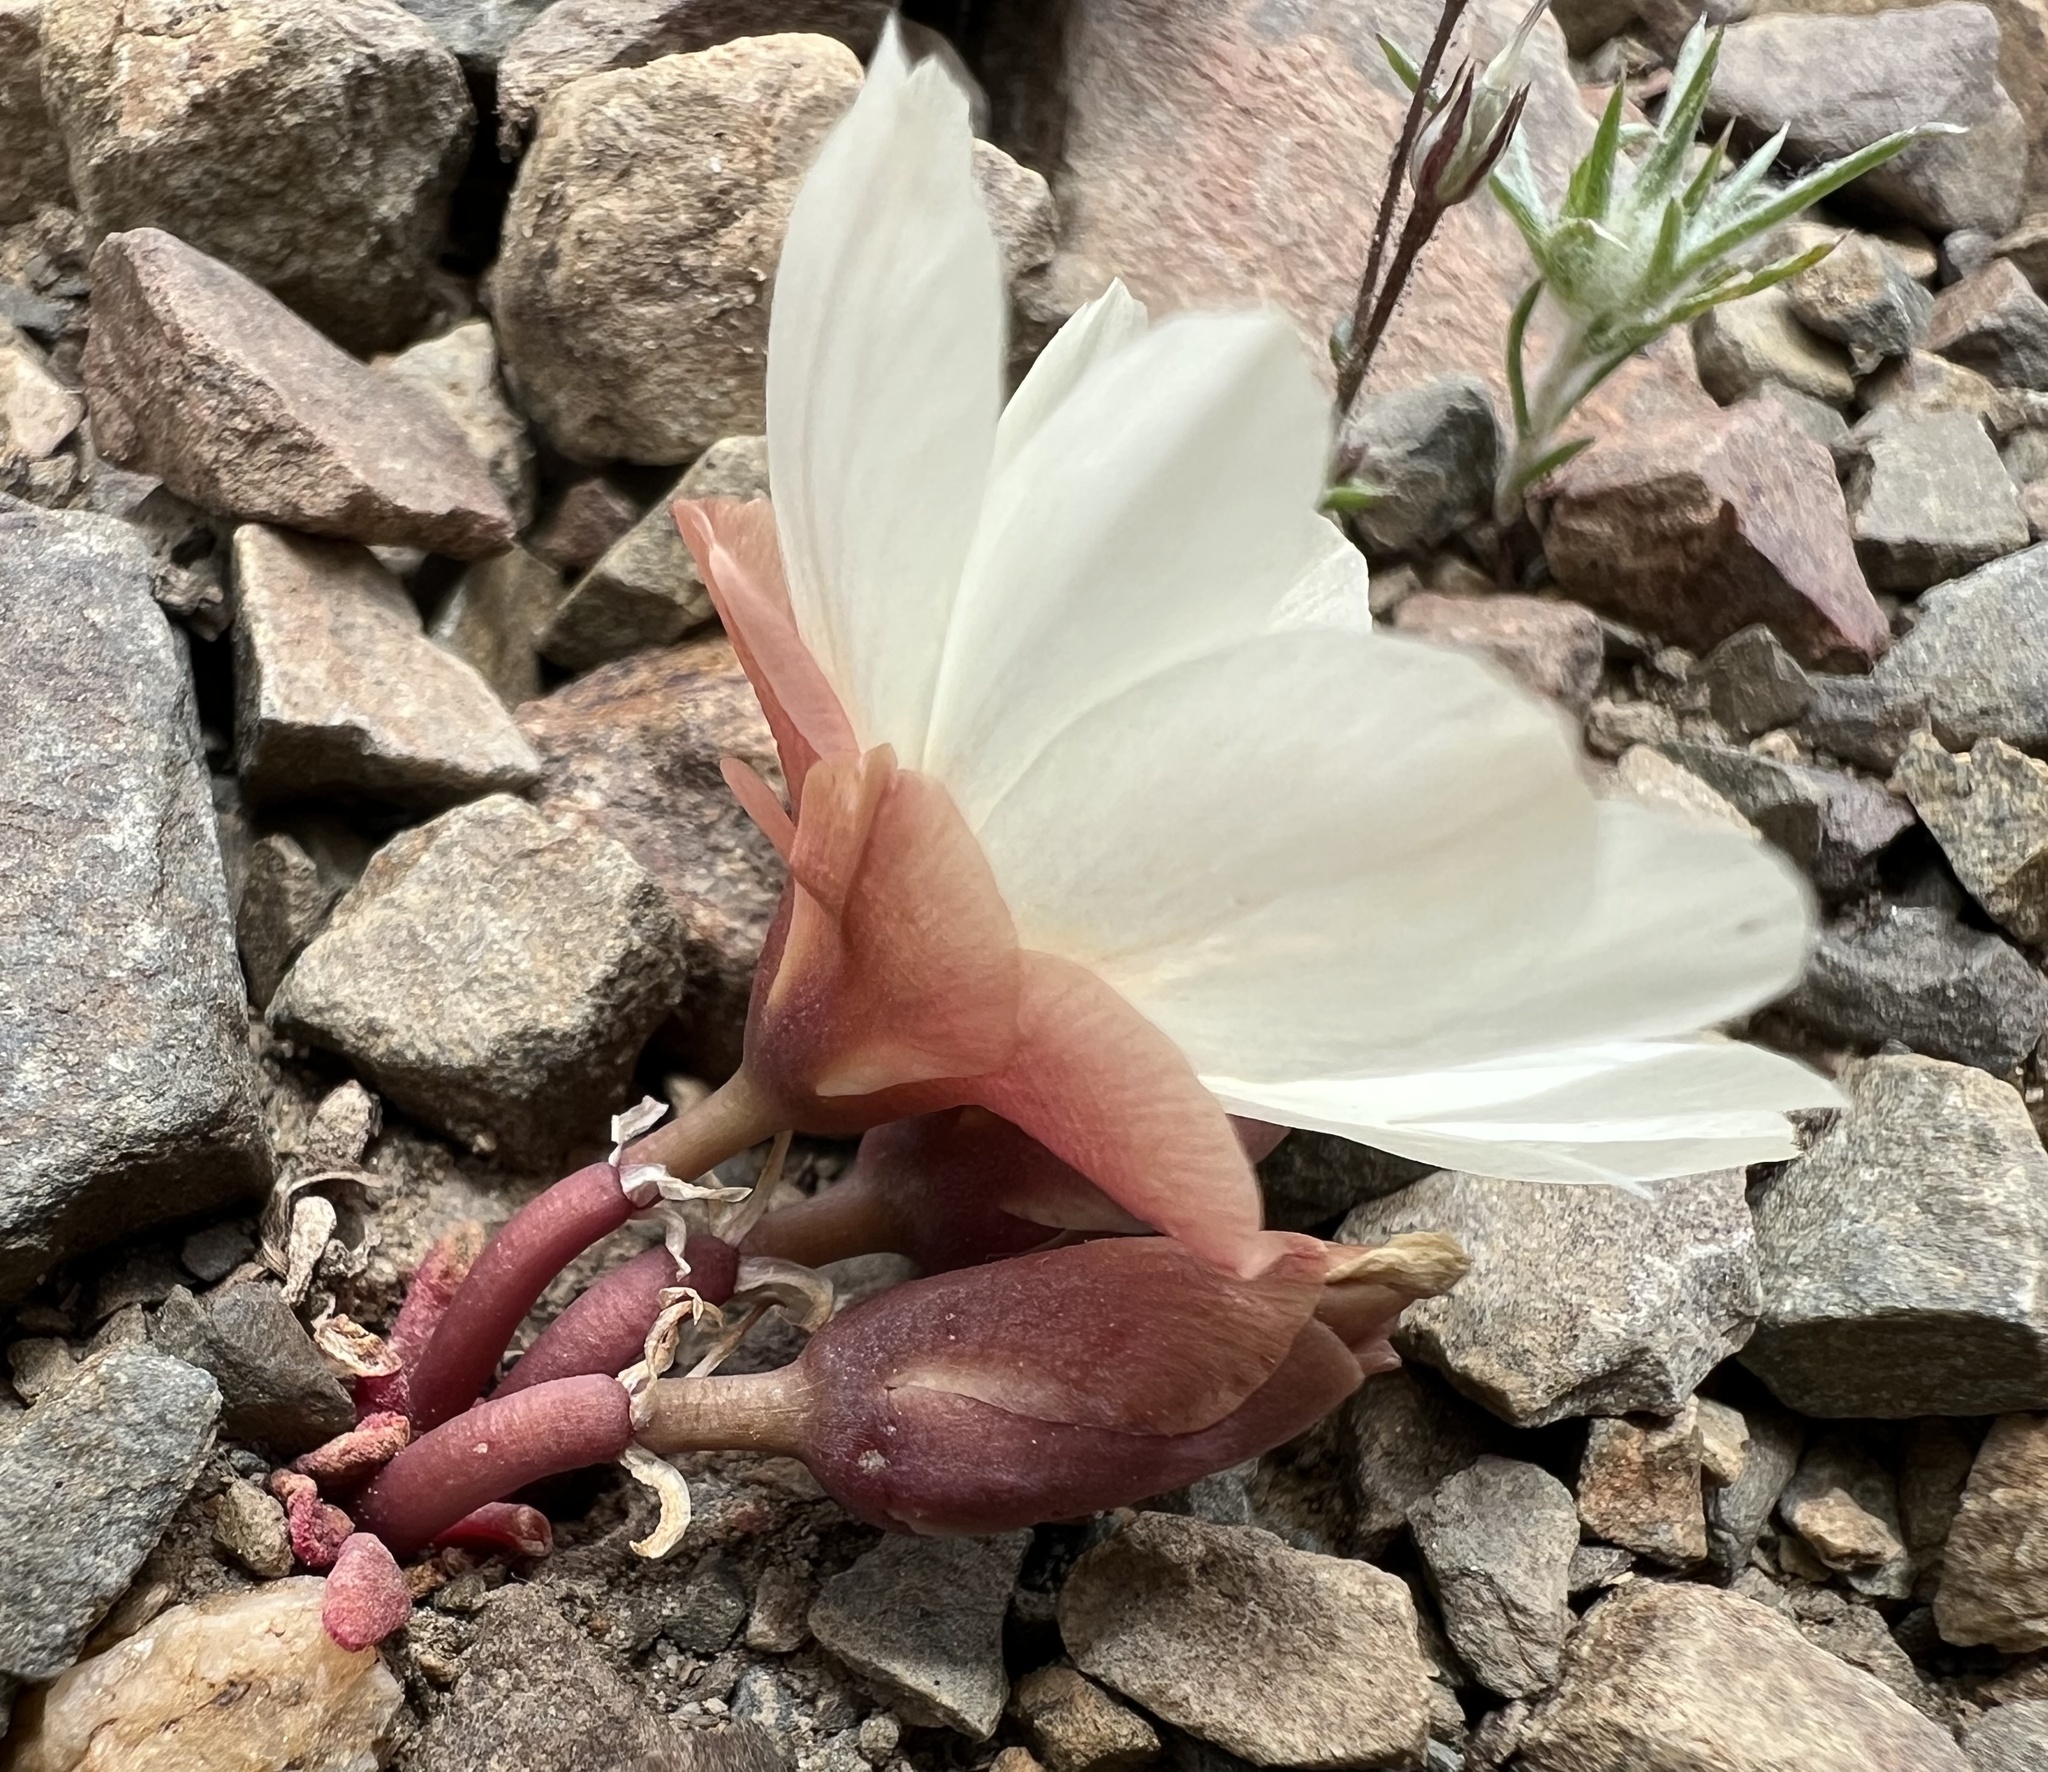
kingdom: Plantae
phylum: Tracheophyta
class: Magnoliopsida
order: Caryophyllales
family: Montiaceae
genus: Lewisia
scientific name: Lewisia rediviva
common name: Bitter-root
